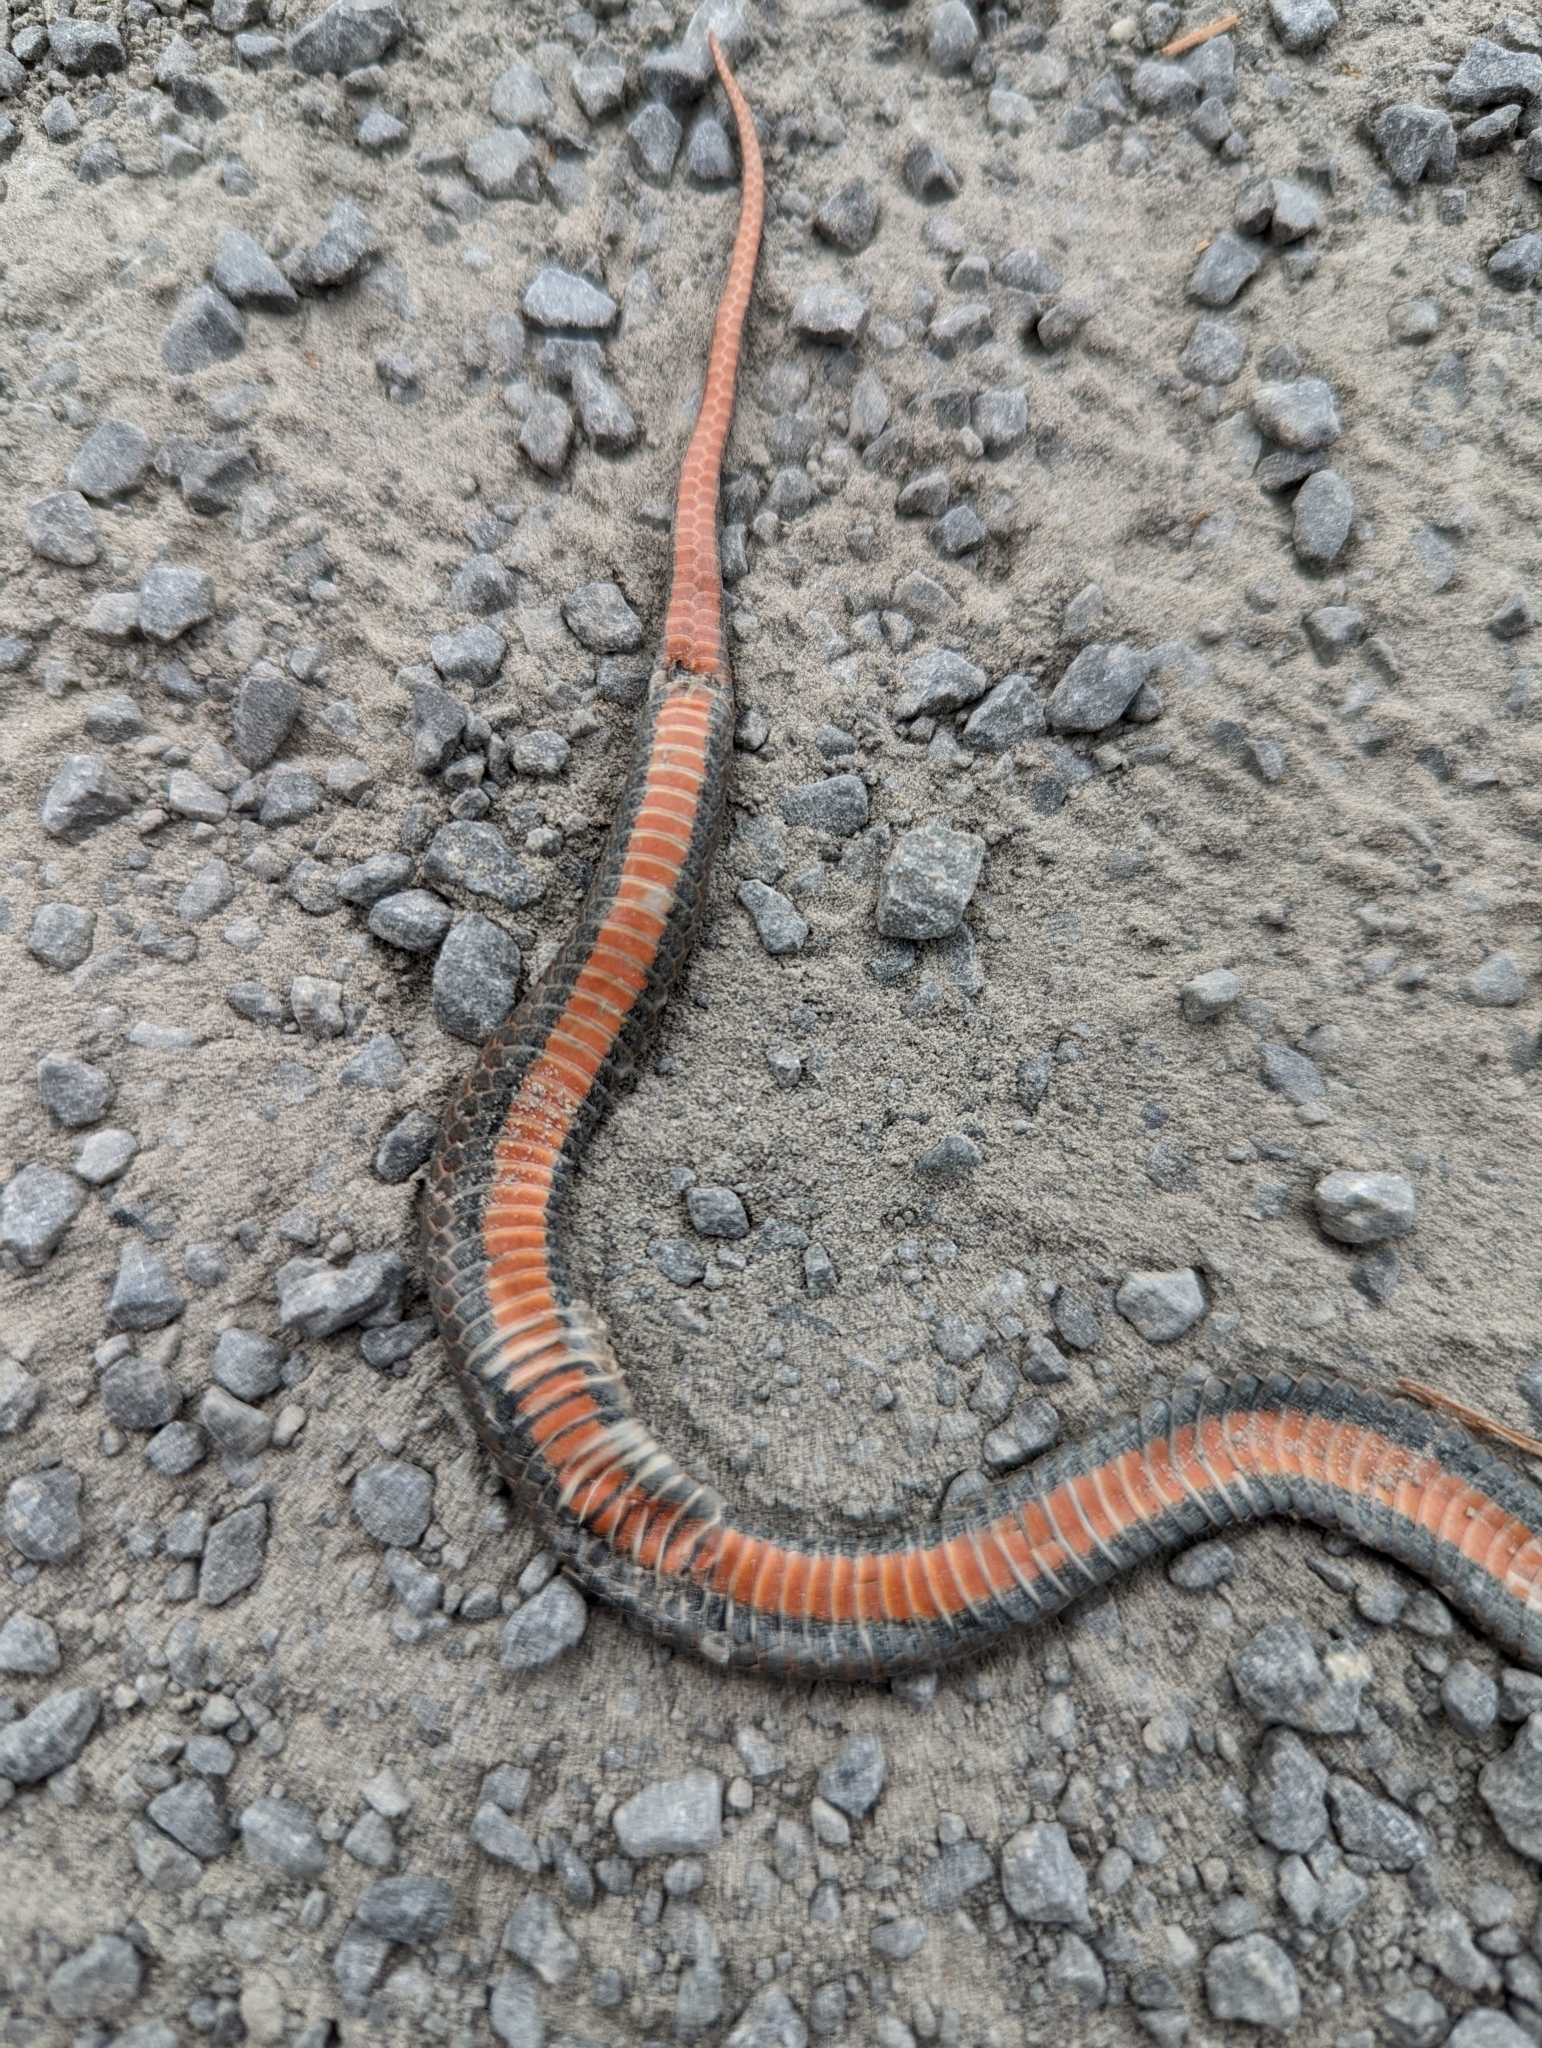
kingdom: Animalia
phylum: Chordata
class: Squamata
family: Colubridae
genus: Storeria
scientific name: Storeria occipitomaculata
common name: Redbelly snake
